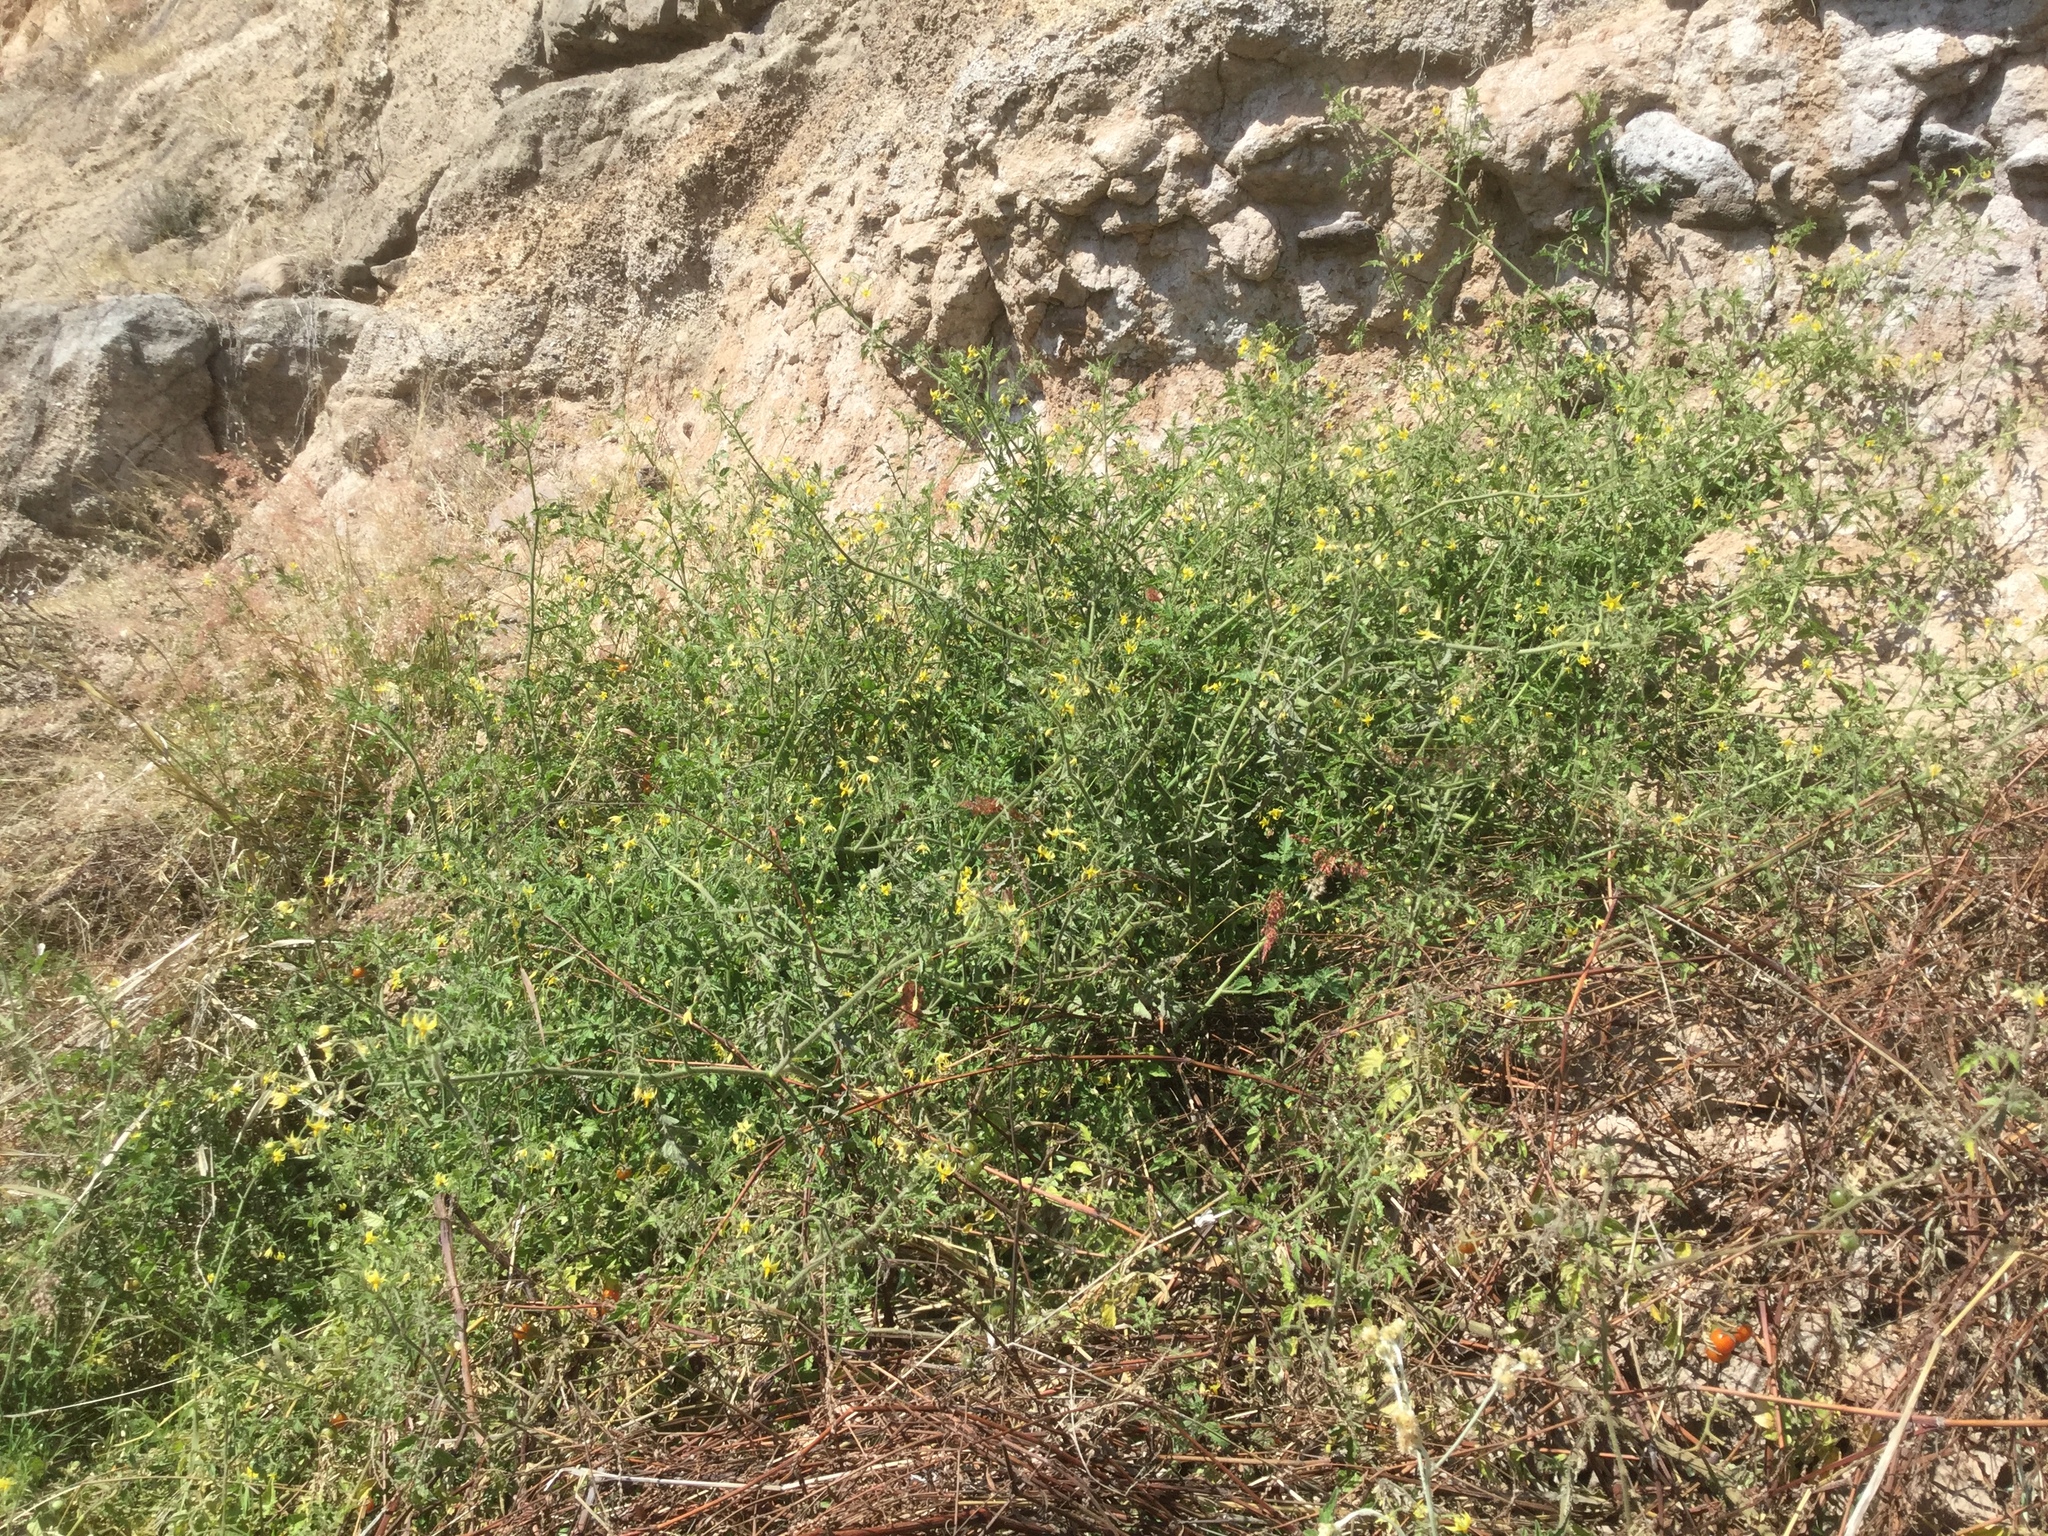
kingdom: Plantae
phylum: Tracheophyta
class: Magnoliopsida
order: Solanales
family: Solanaceae
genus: Solanum
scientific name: Solanum lycopersicum
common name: Garden tomato
